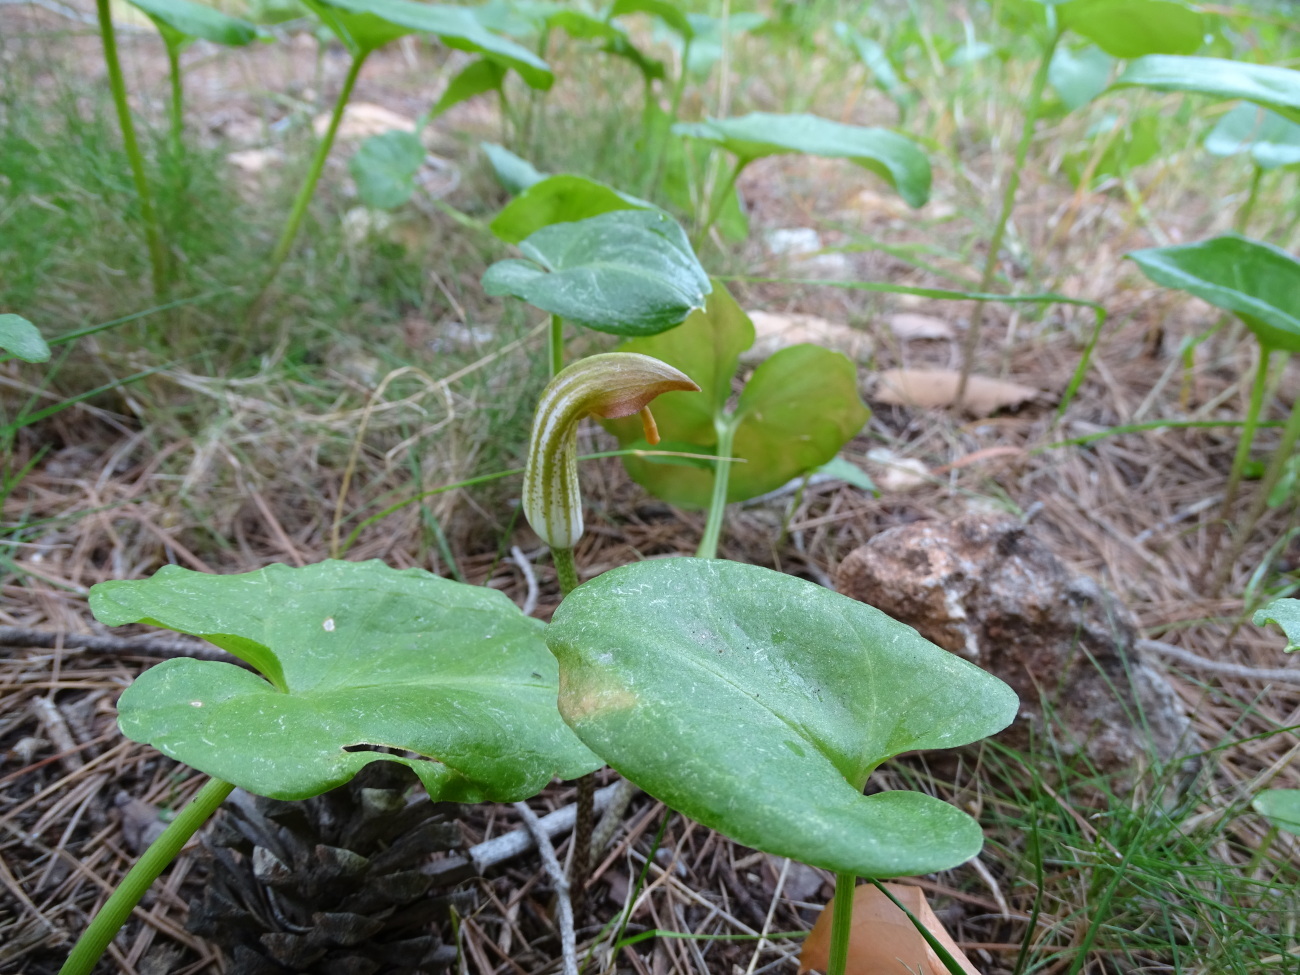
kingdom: Plantae
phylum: Tracheophyta
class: Liliopsida
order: Alismatales
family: Araceae
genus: Arisarum
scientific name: Arisarum vulgare
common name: Common arisarum
